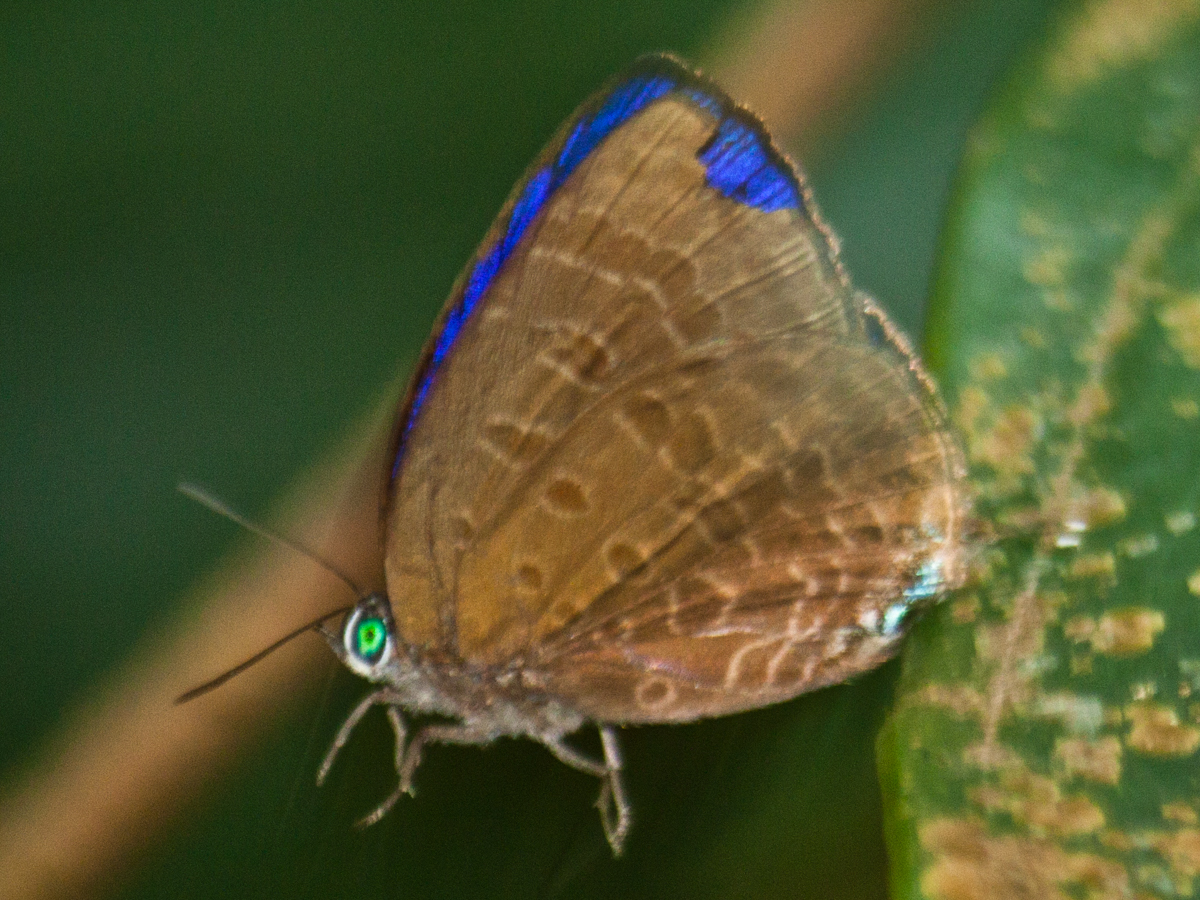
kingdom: Animalia
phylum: Arthropoda
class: Insecta
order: Lepidoptera
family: Lycaenidae
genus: Arhopala
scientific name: Arhopala milleri
